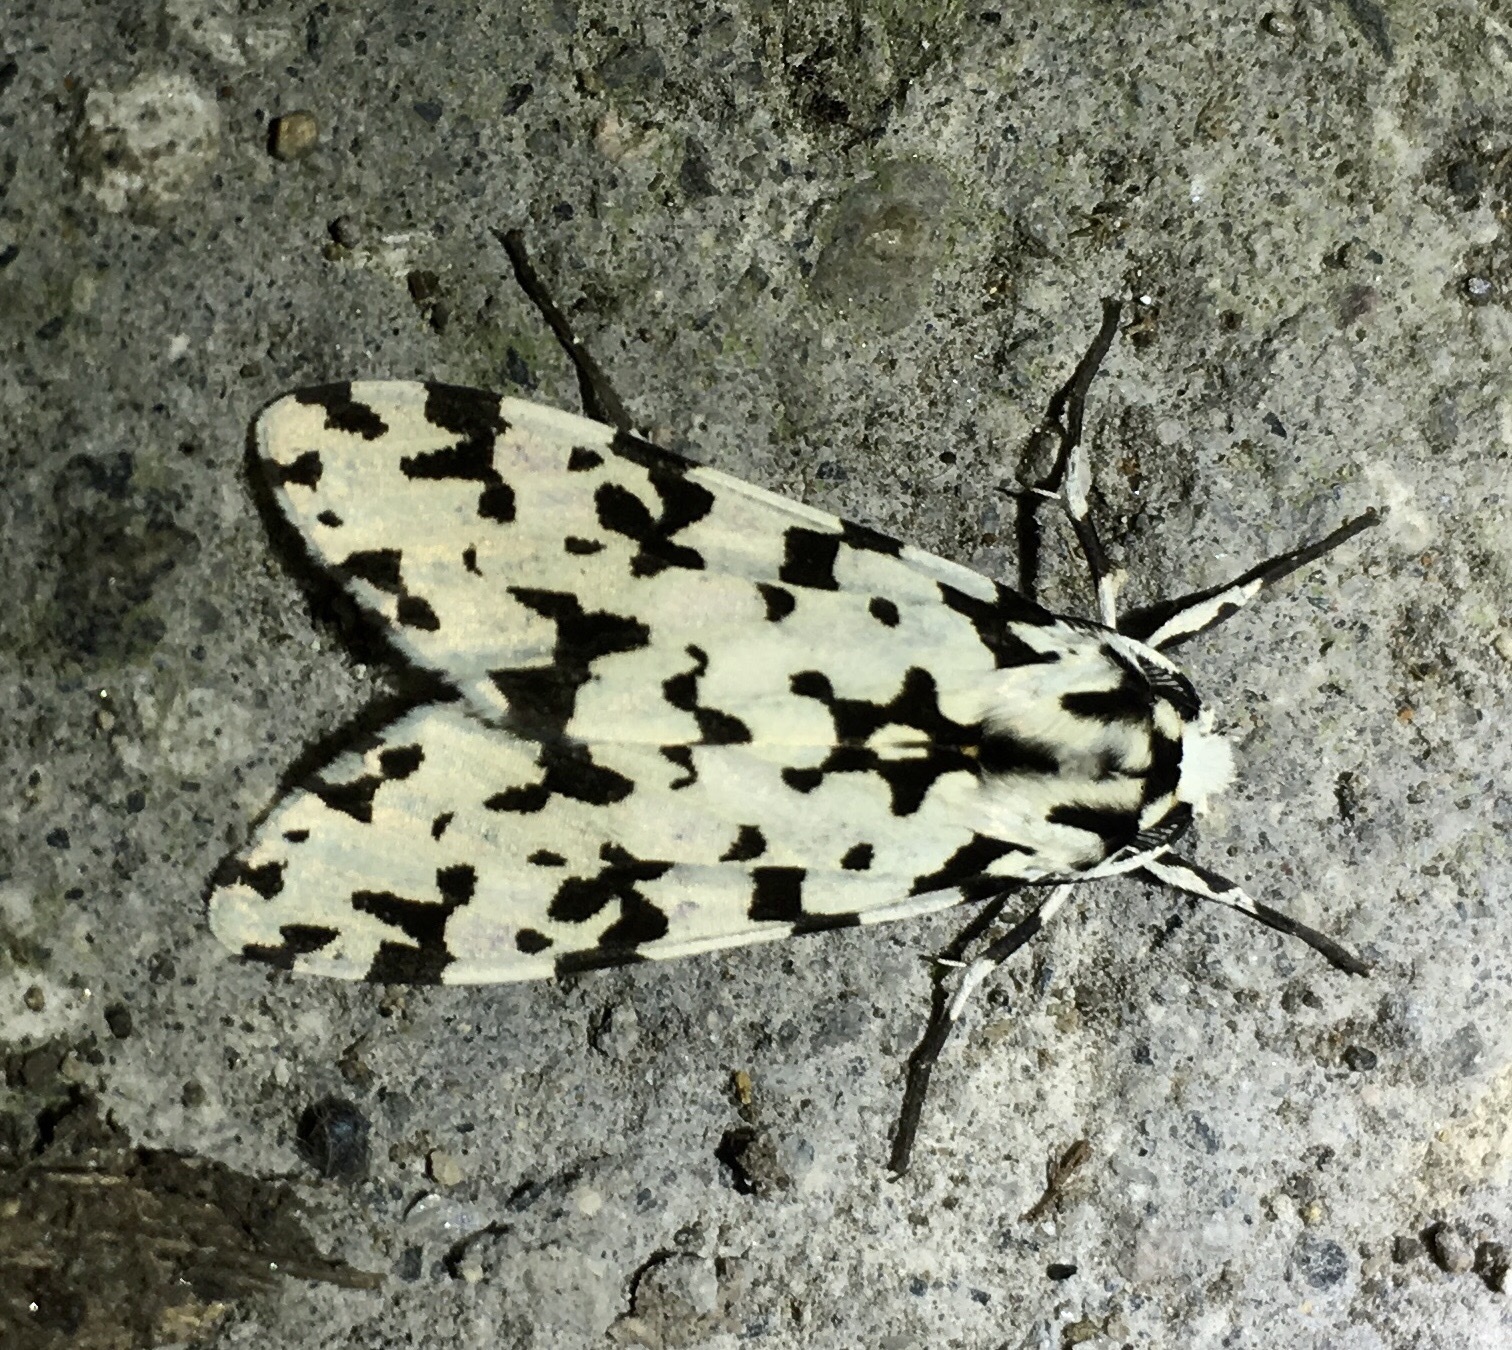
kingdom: Animalia
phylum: Arthropoda
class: Insecta
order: Lepidoptera
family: Erebidae
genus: Eucereon
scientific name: Eucereon tigrata
